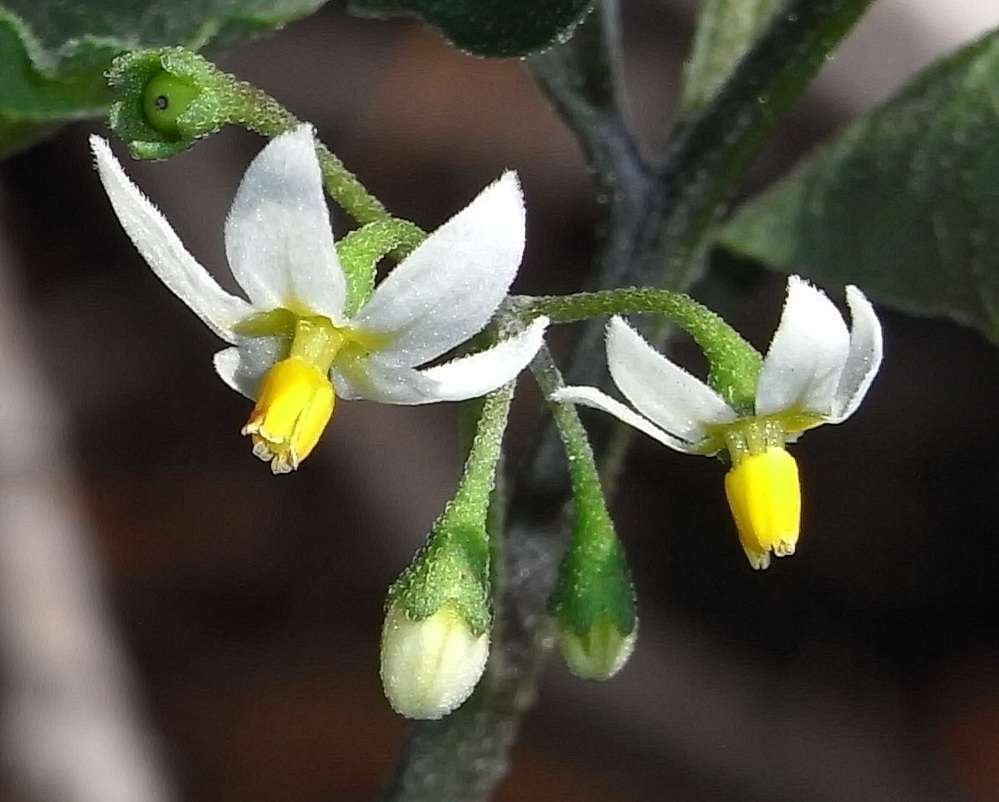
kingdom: Plantae
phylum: Tracheophyta
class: Magnoliopsida
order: Solanales
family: Solanaceae
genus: Solanum
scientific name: Solanum nigrum
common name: Black nightshade
